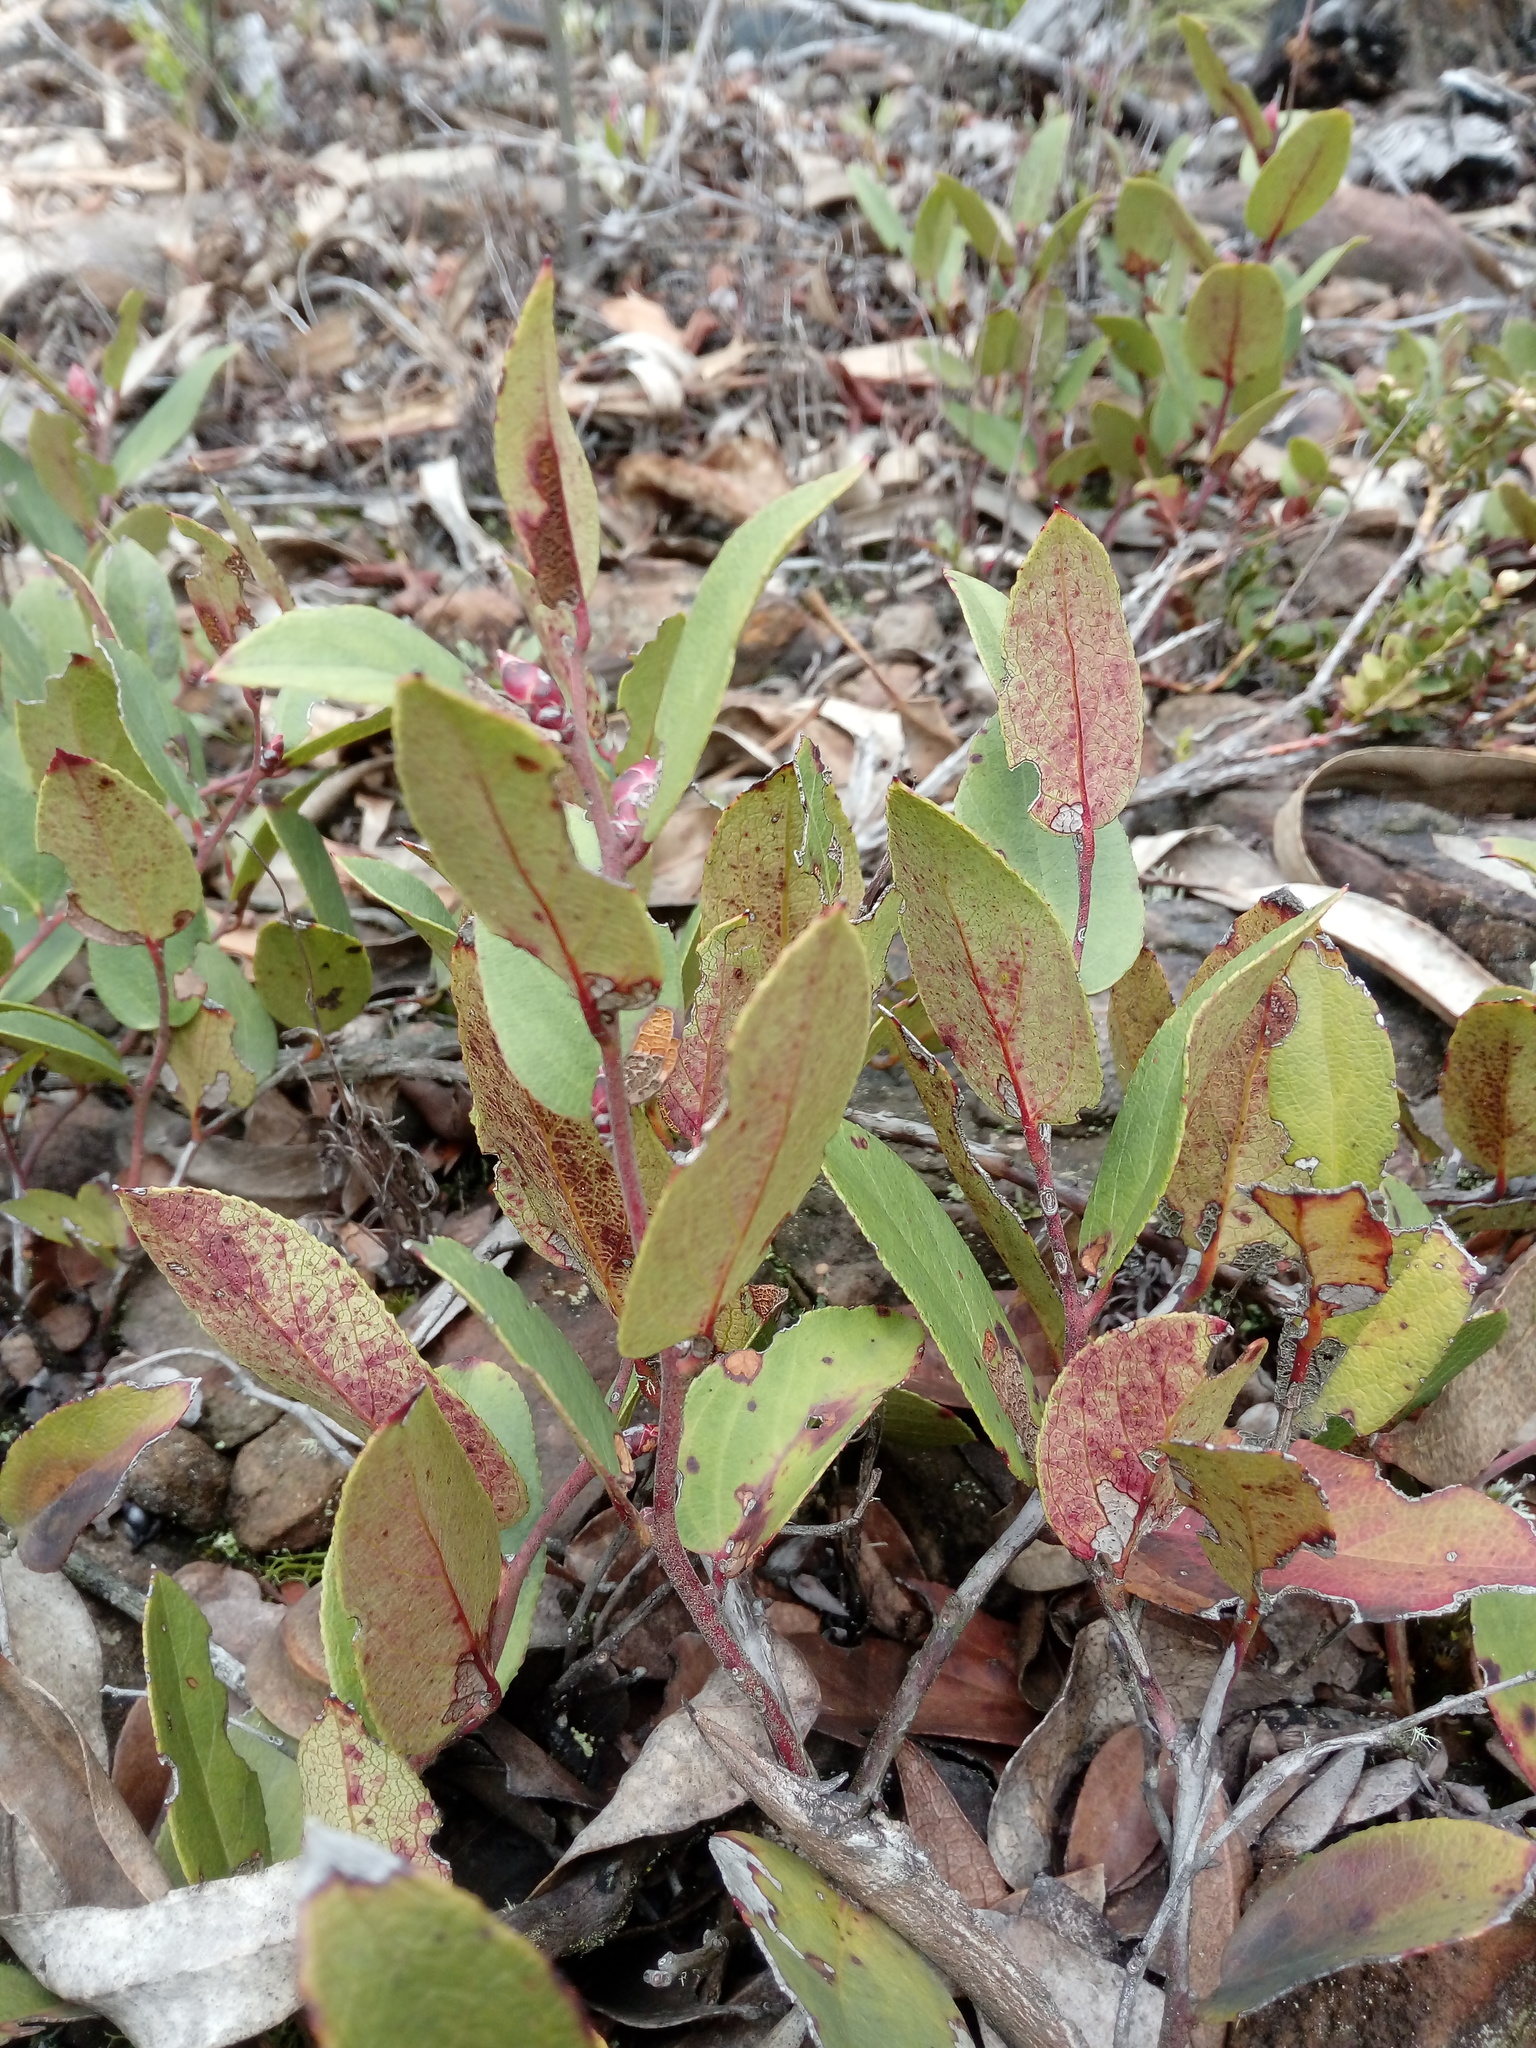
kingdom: Plantae
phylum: Tracheophyta
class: Magnoliopsida
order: Ericales
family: Ericaceae
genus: Gaultheria
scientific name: Gaultheria erecta
